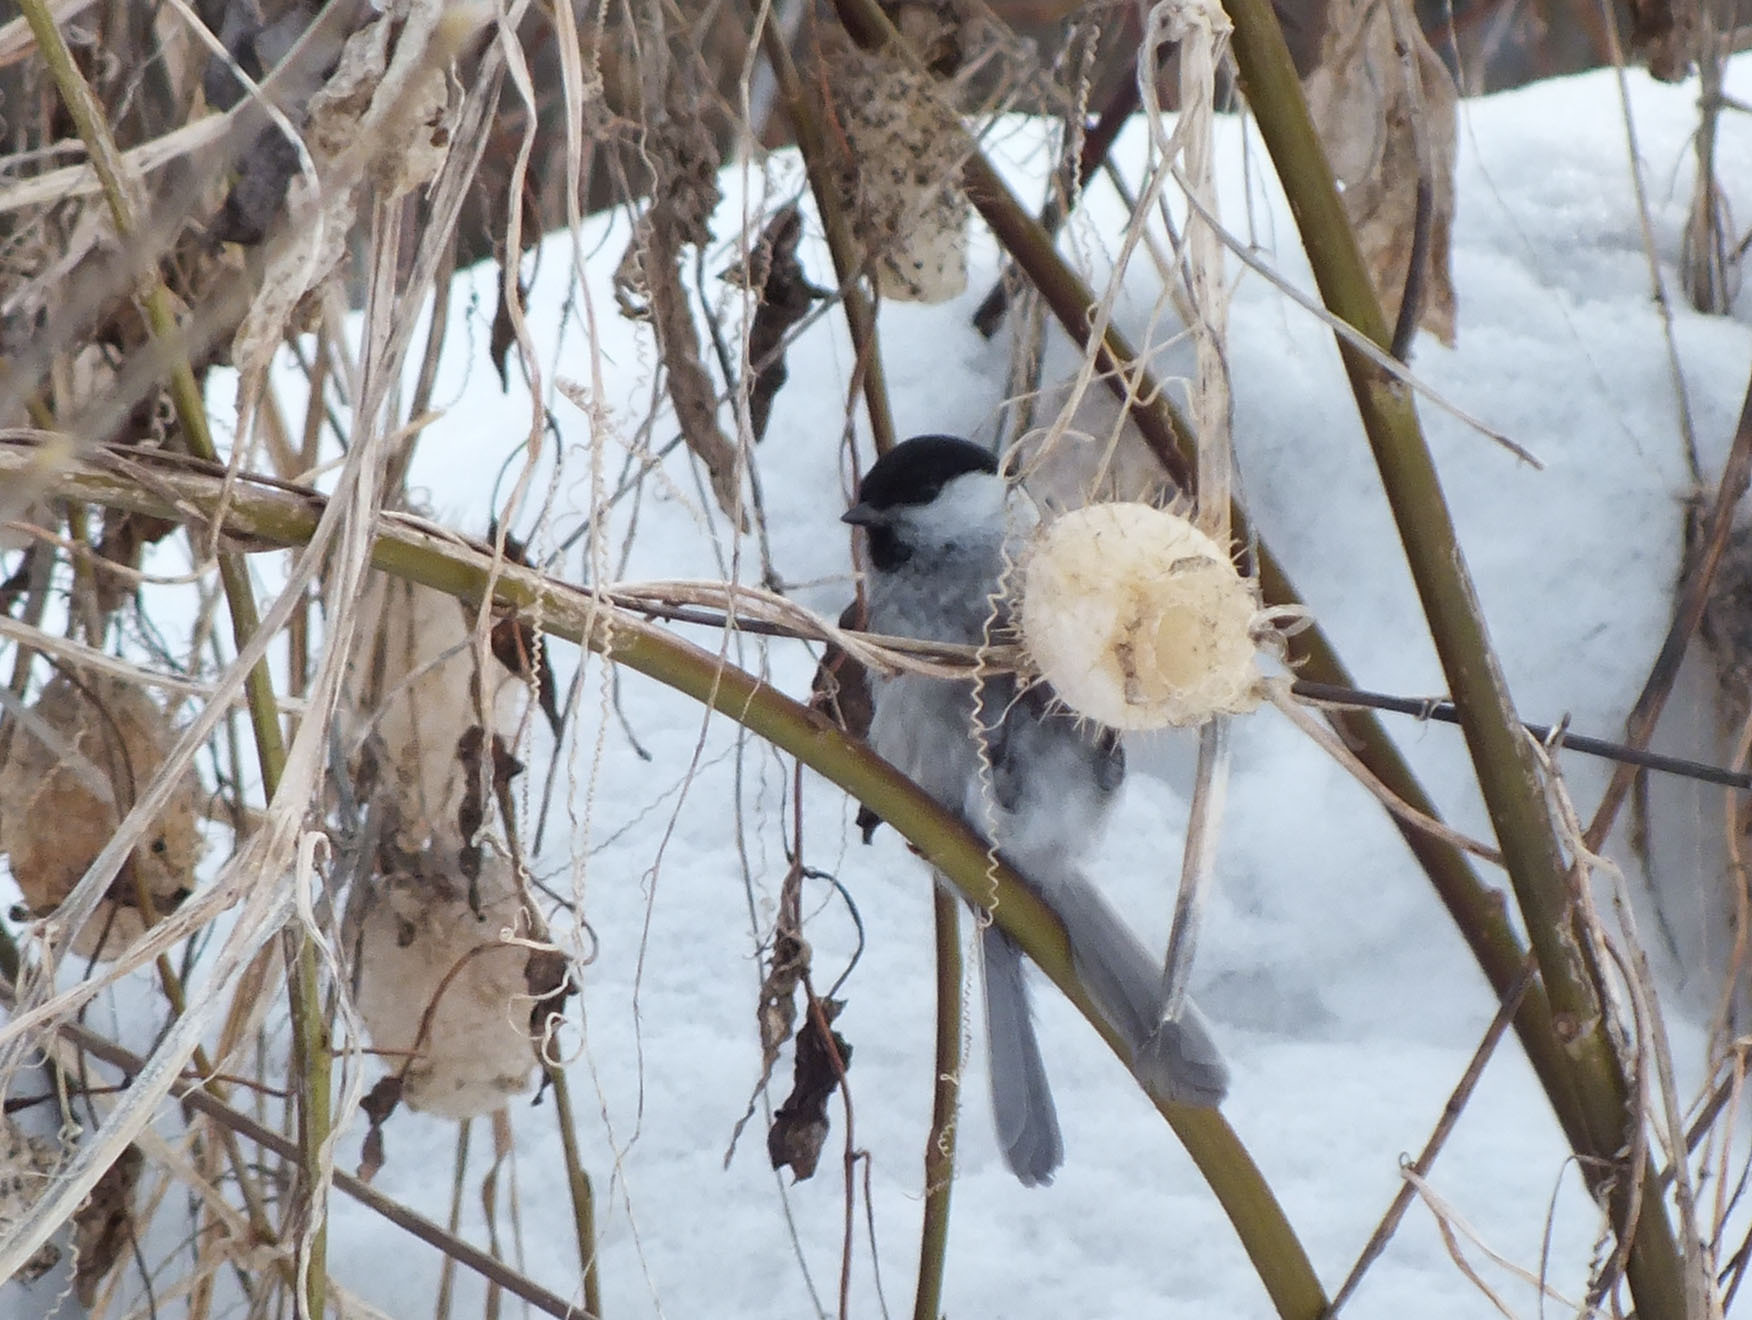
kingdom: Animalia
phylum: Chordata
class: Aves
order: Passeriformes
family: Paridae
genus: Poecile
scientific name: Poecile montanus
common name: Willow tit
